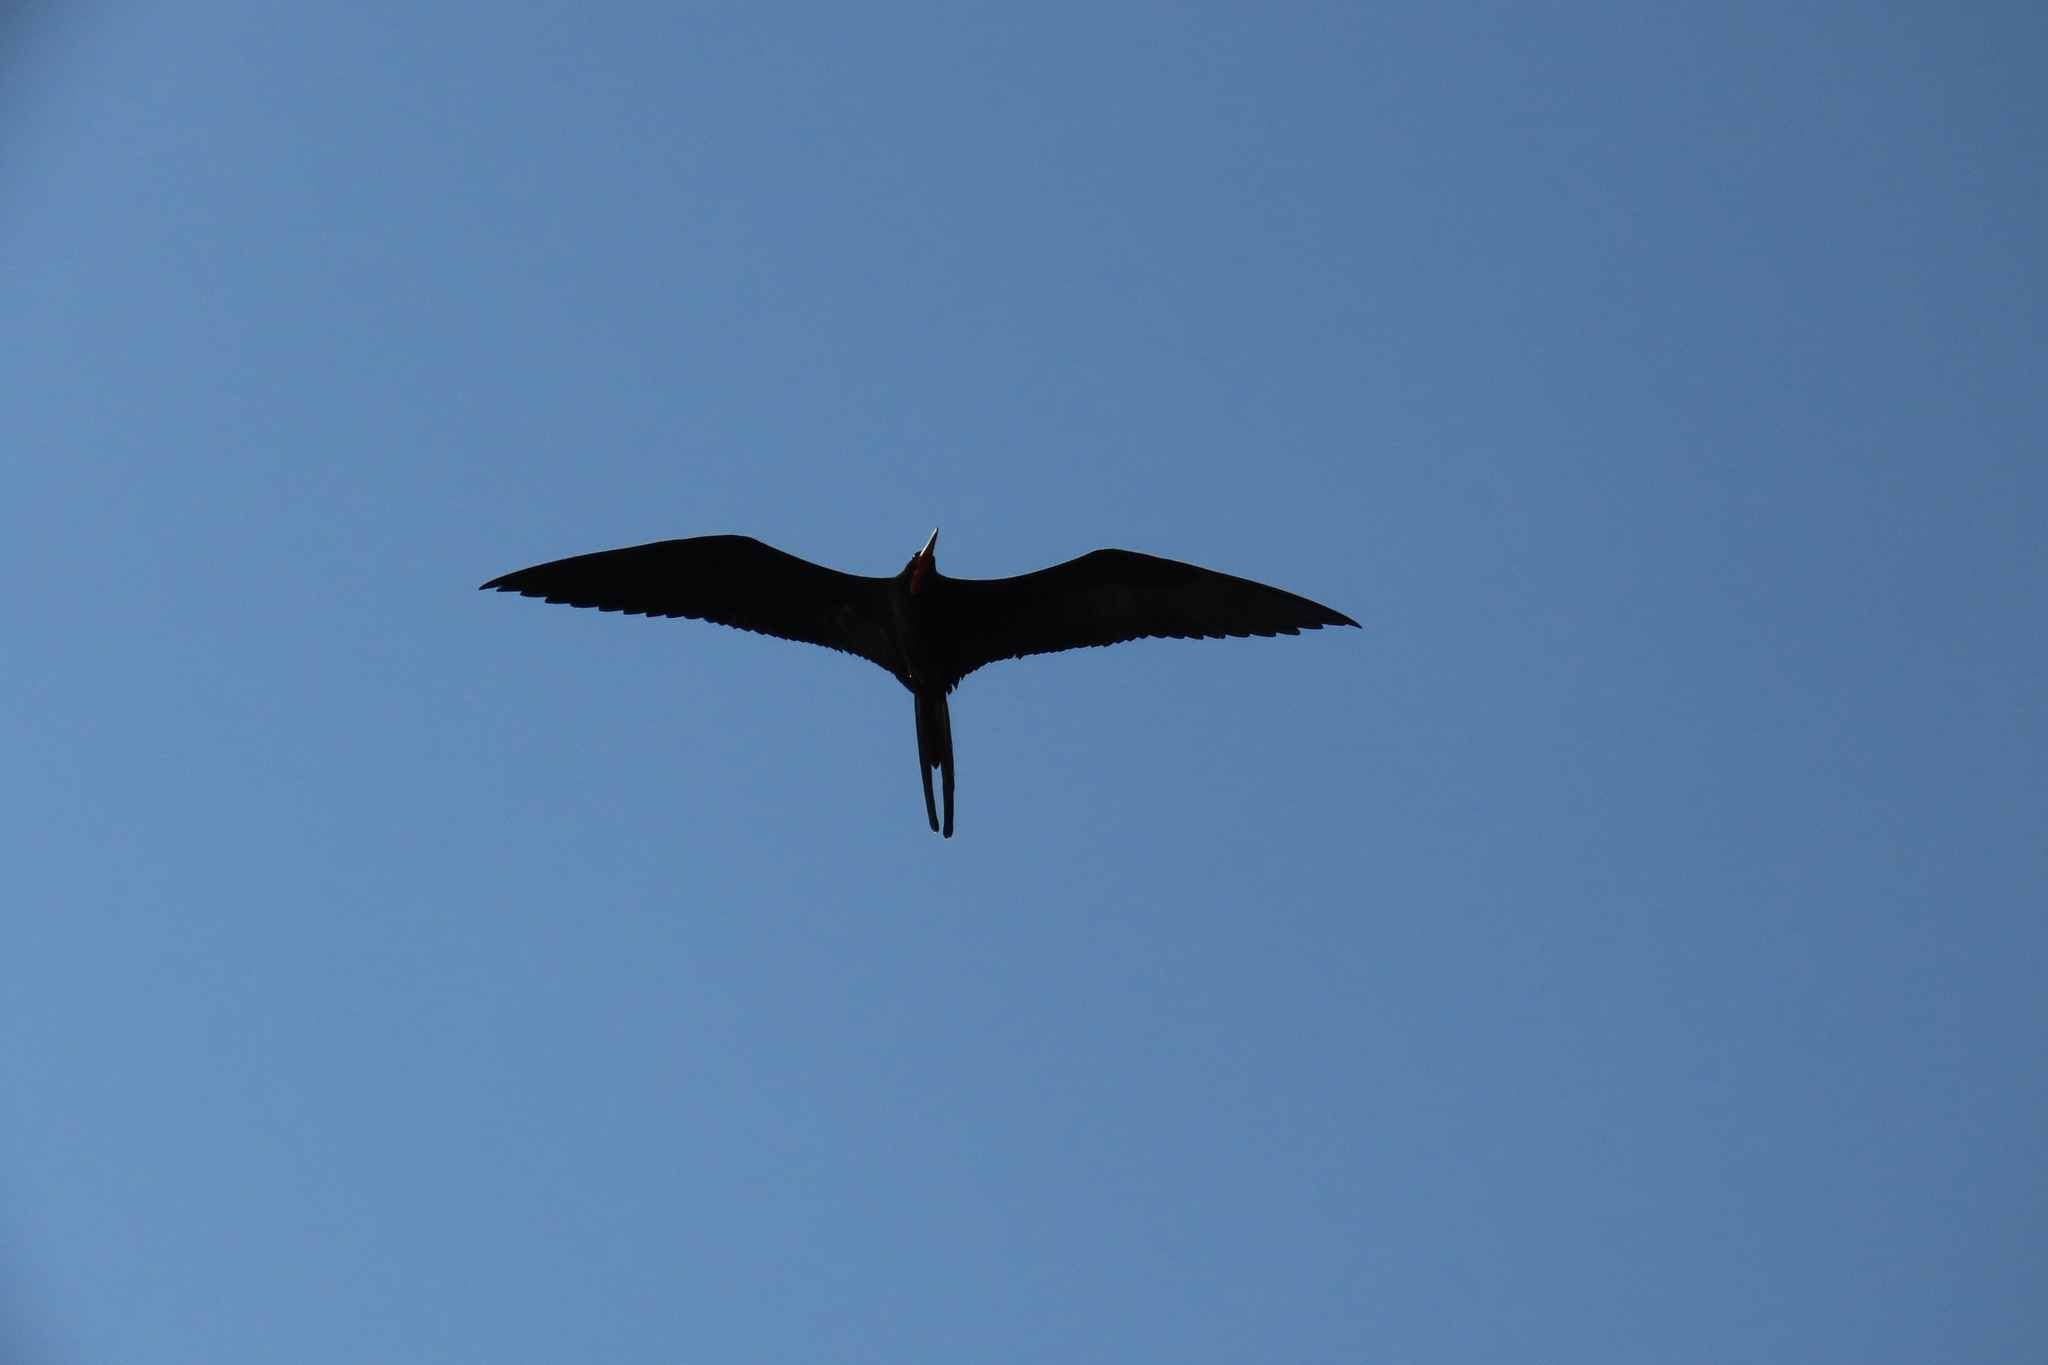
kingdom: Animalia
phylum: Chordata
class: Aves
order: Suliformes
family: Fregatidae
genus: Fregata
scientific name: Fregata magnificens
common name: Magnificent frigatebird
